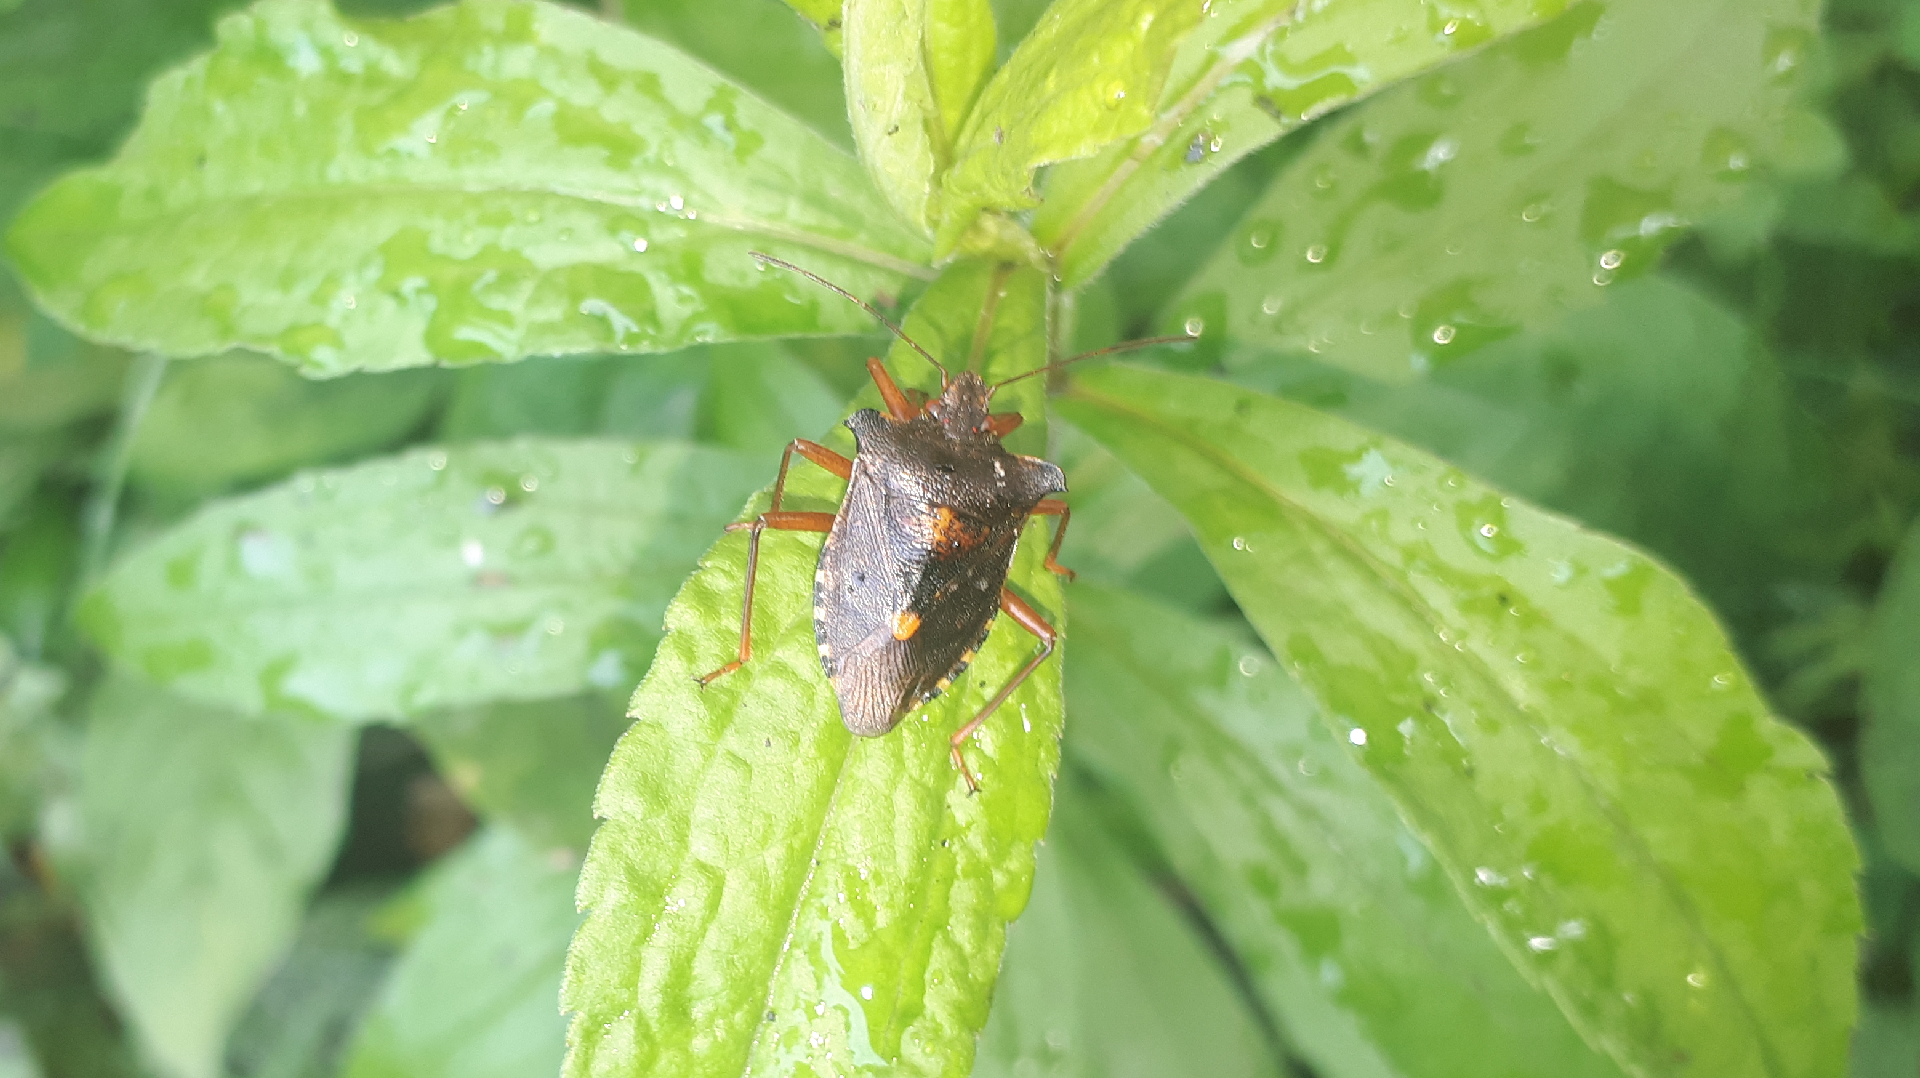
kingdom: Animalia
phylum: Arthropoda
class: Insecta
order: Hemiptera
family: Pentatomidae
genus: Pentatoma
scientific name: Pentatoma rufipes
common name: Forest bug
